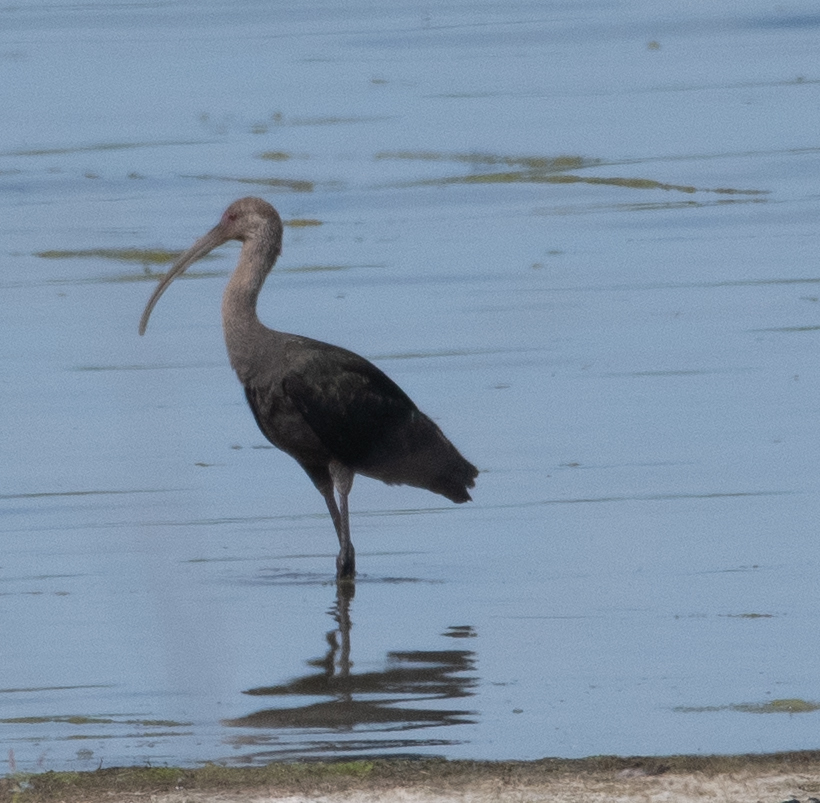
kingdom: Animalia
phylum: Chordata
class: Aves
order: Pelecaniformes
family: Threskiornithidae
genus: Plegadis
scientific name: Plegadis chihi
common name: White-faced ibis
